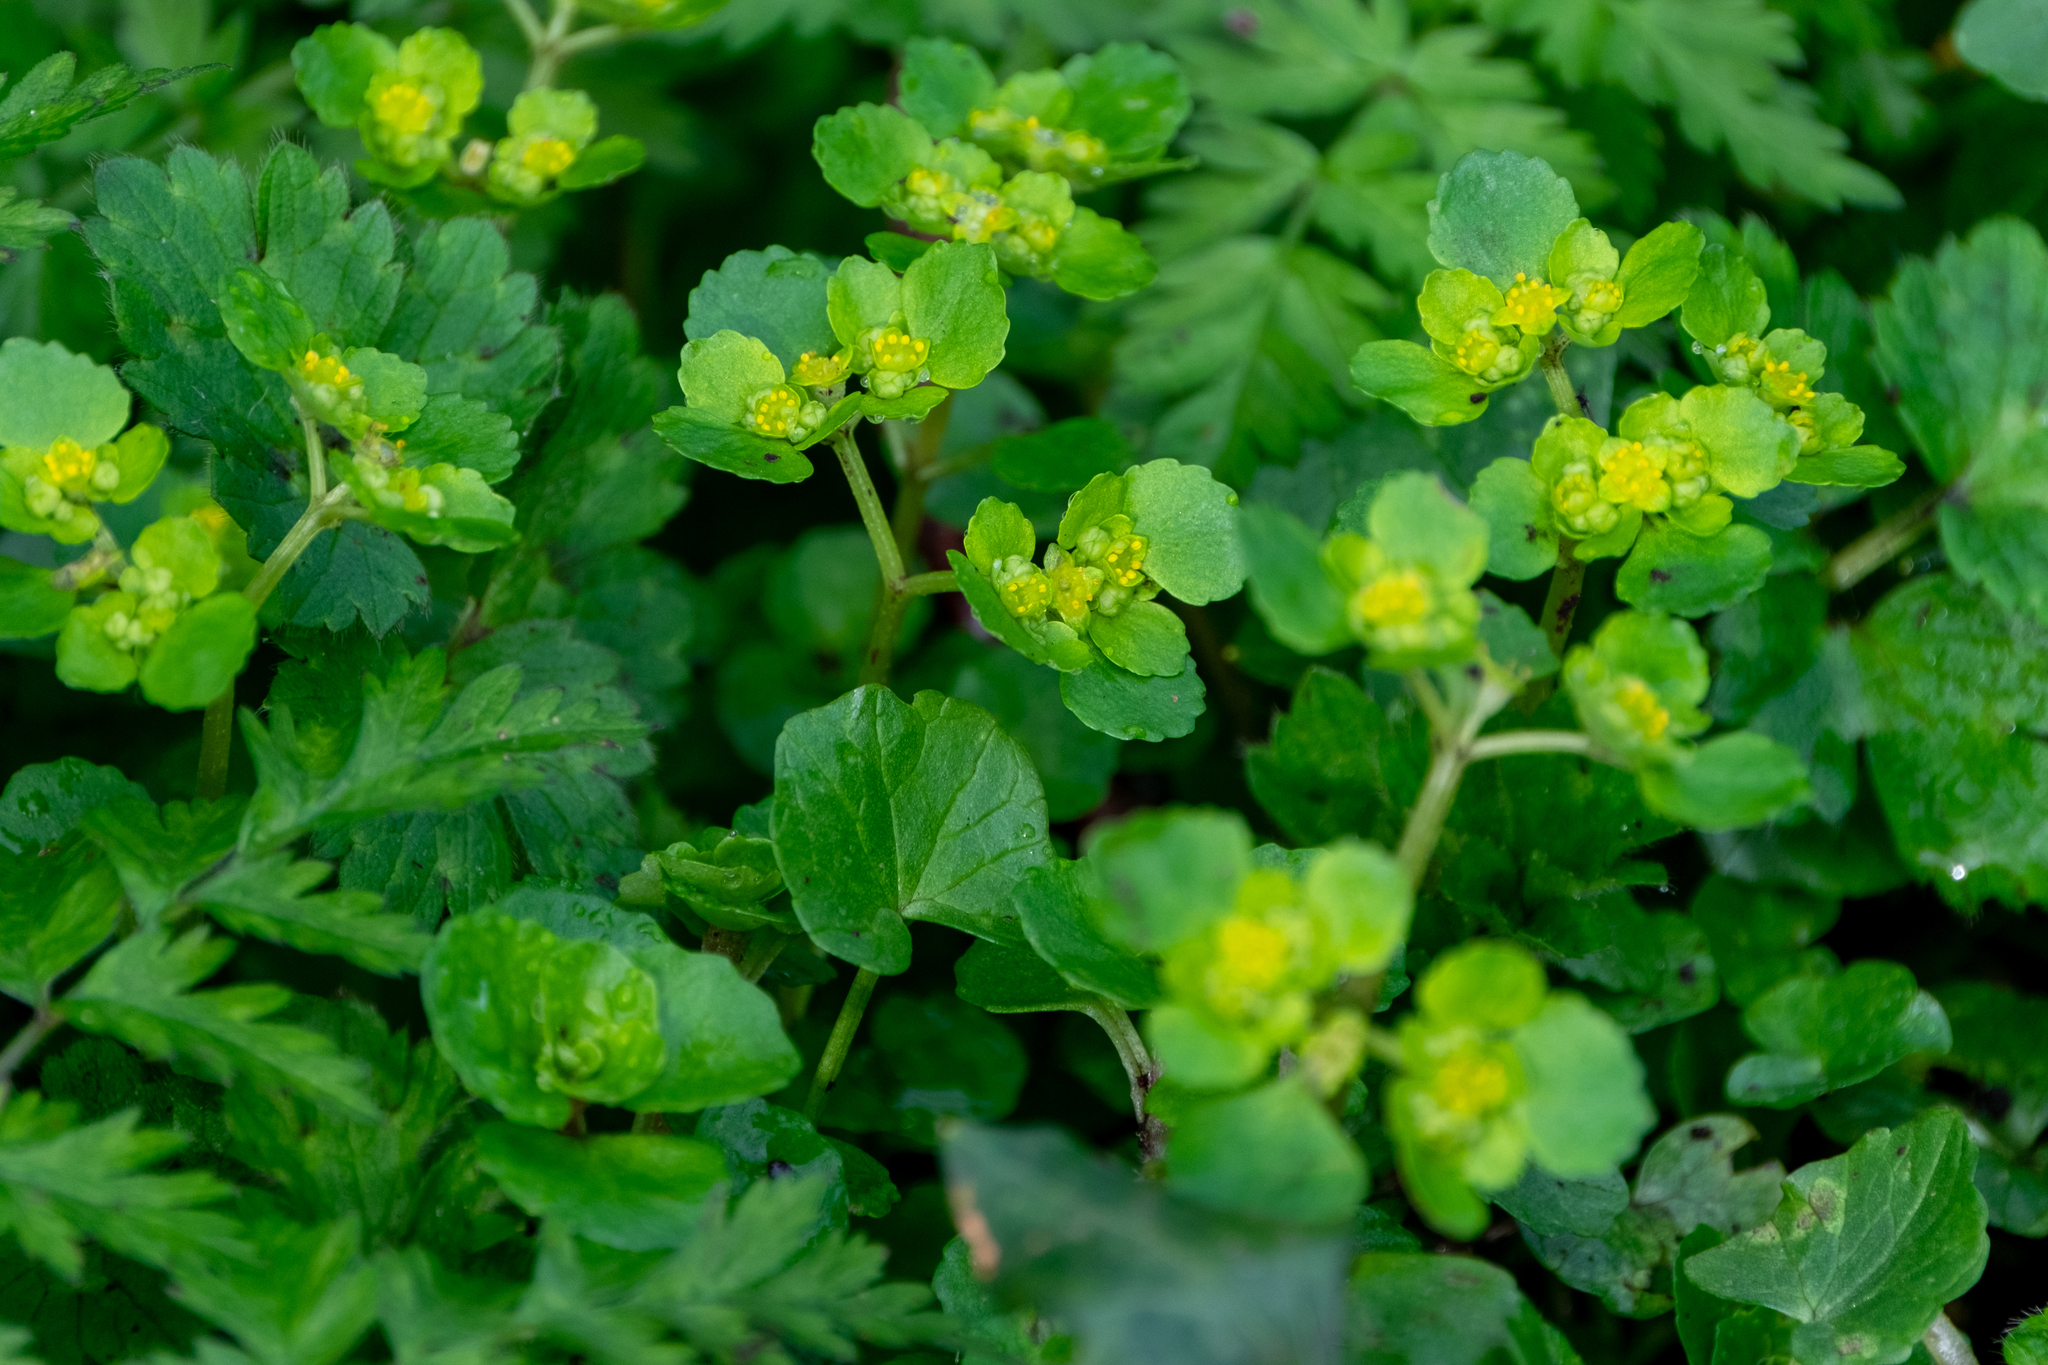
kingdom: Plantae
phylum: Tracheophyta
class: Magnoliopsida
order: Saxifragales
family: Saxifragaceae
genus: Chrysosplenium
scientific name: Chrysosplenium oppositifolium
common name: Opposite-leaved golden-saxifrage
